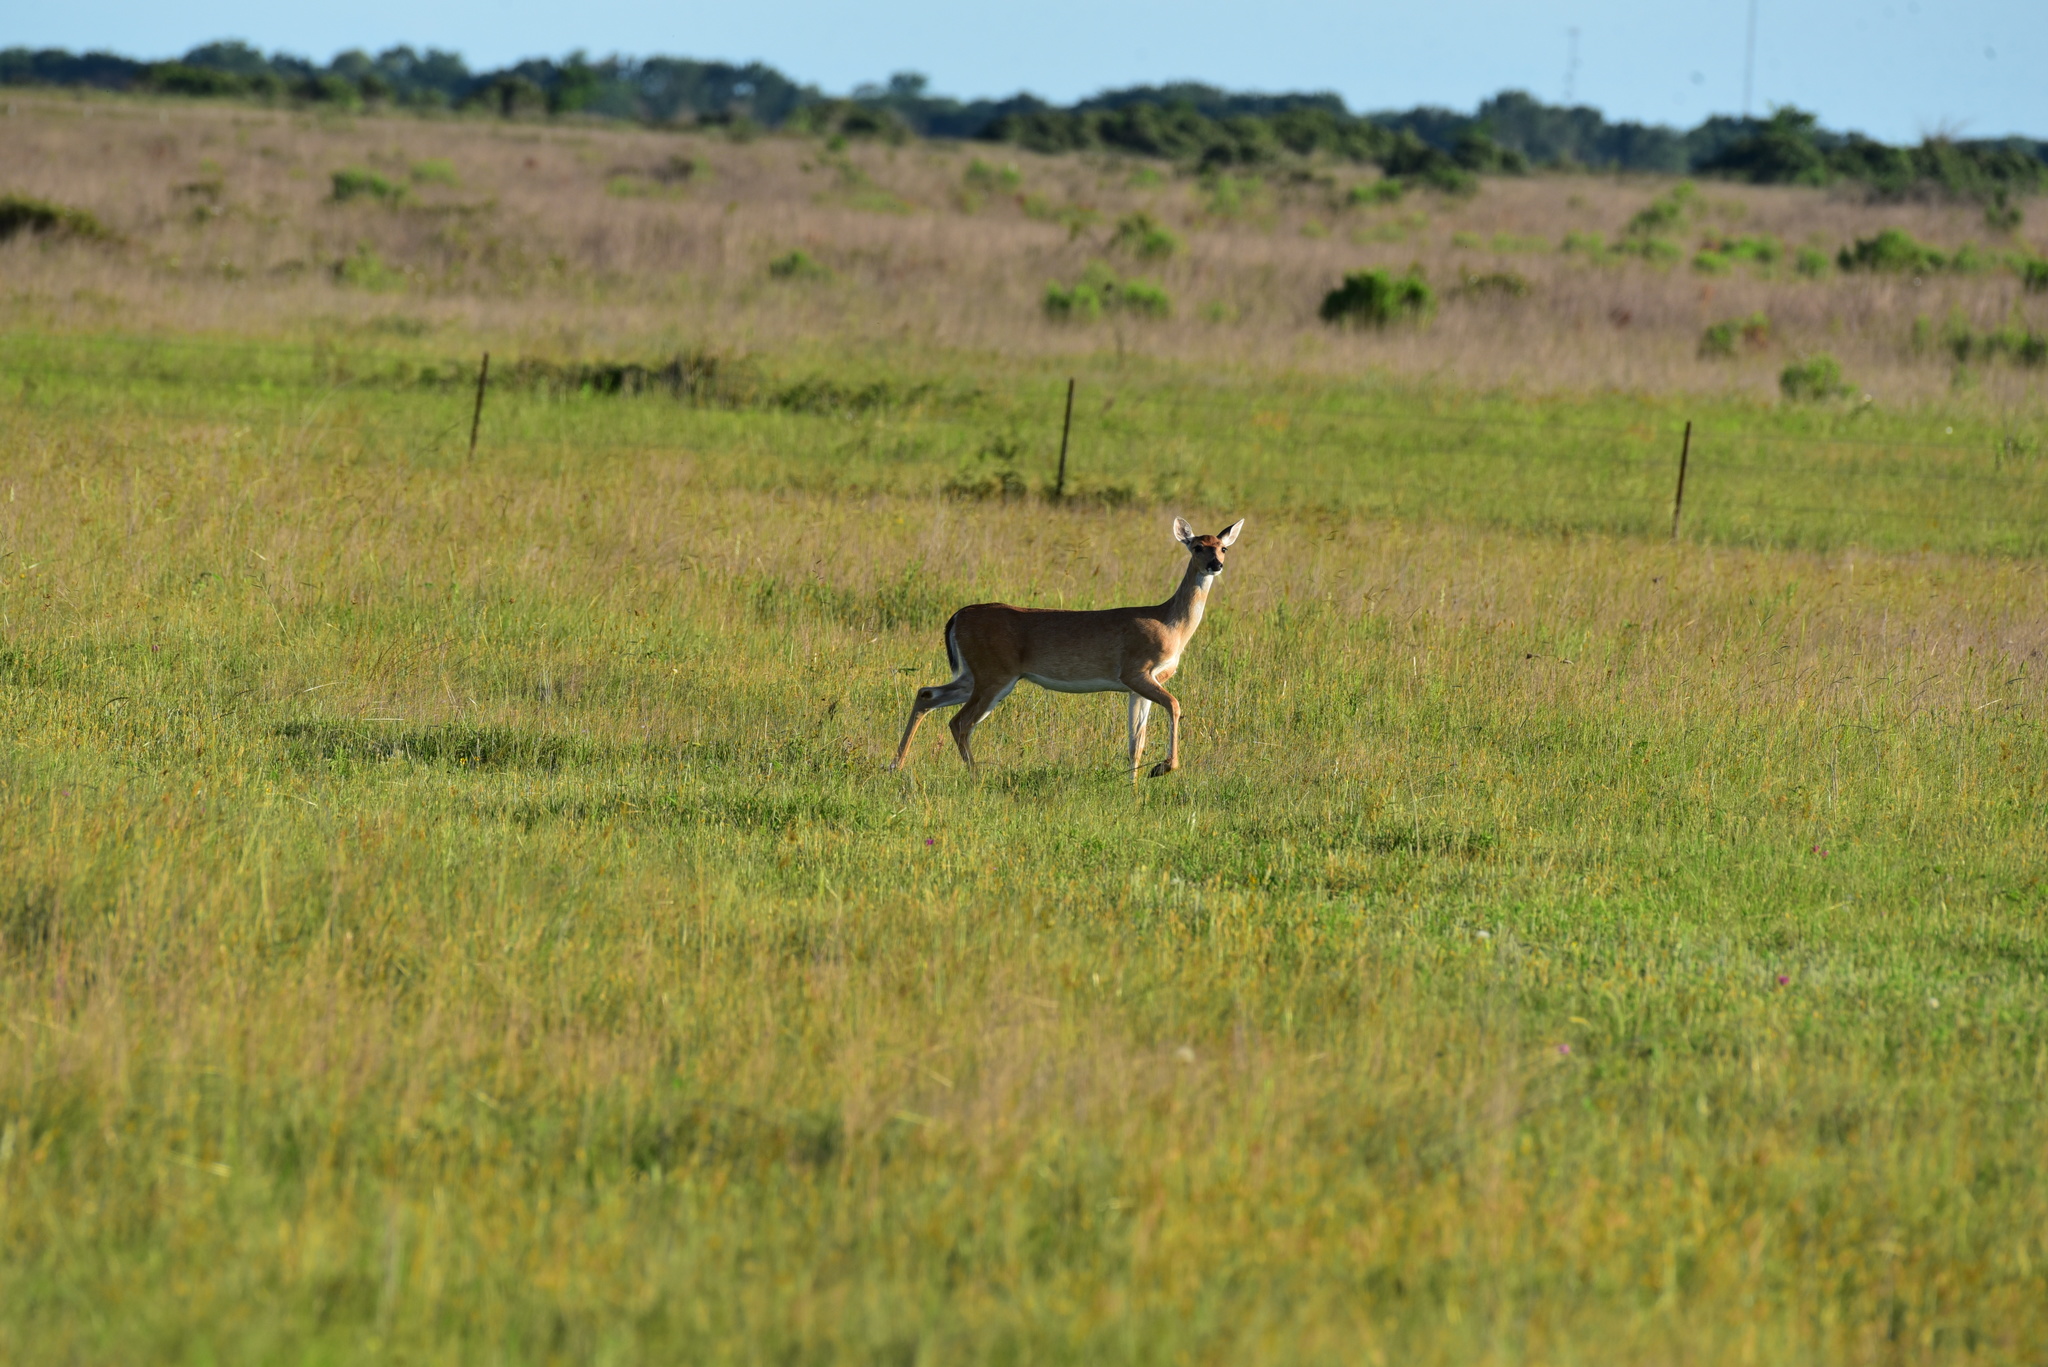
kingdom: Animalia
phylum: Chordata
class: Mammalia
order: Artiodactyla
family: Cervidae
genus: Odocoileus
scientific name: Odocoileus virginianus
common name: White-tailed deer
